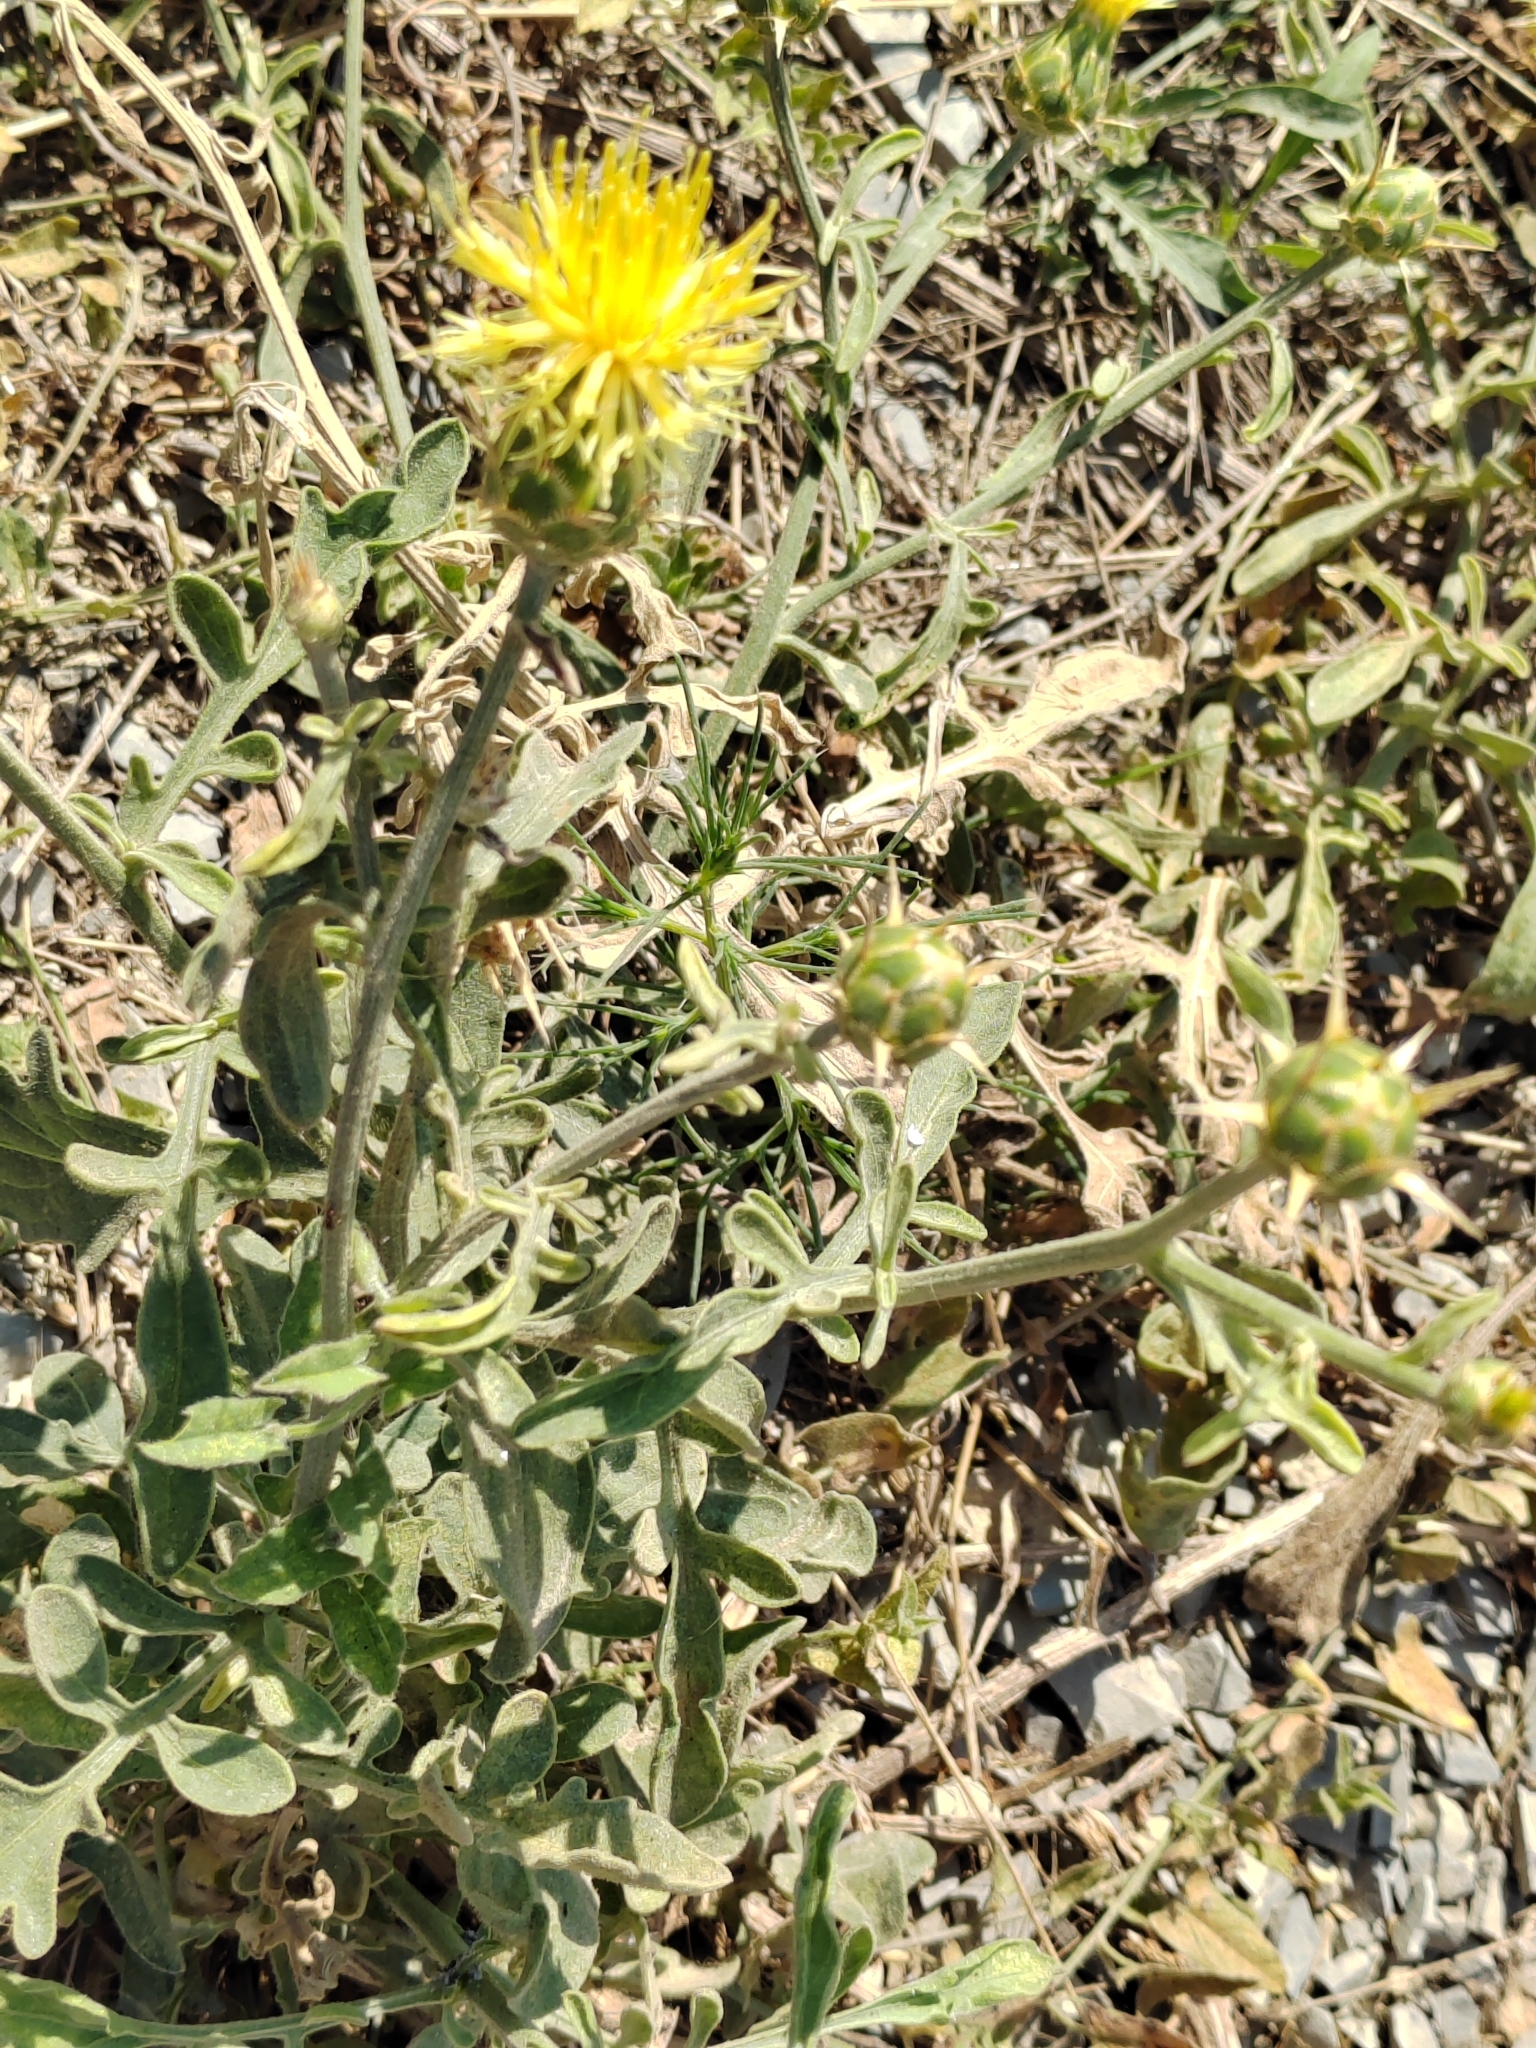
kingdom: Plantae
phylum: Tracheophyta
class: Magnoliopsida
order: Asterales
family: Asteraceae
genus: Centaurea
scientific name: Centaurea salonitana
